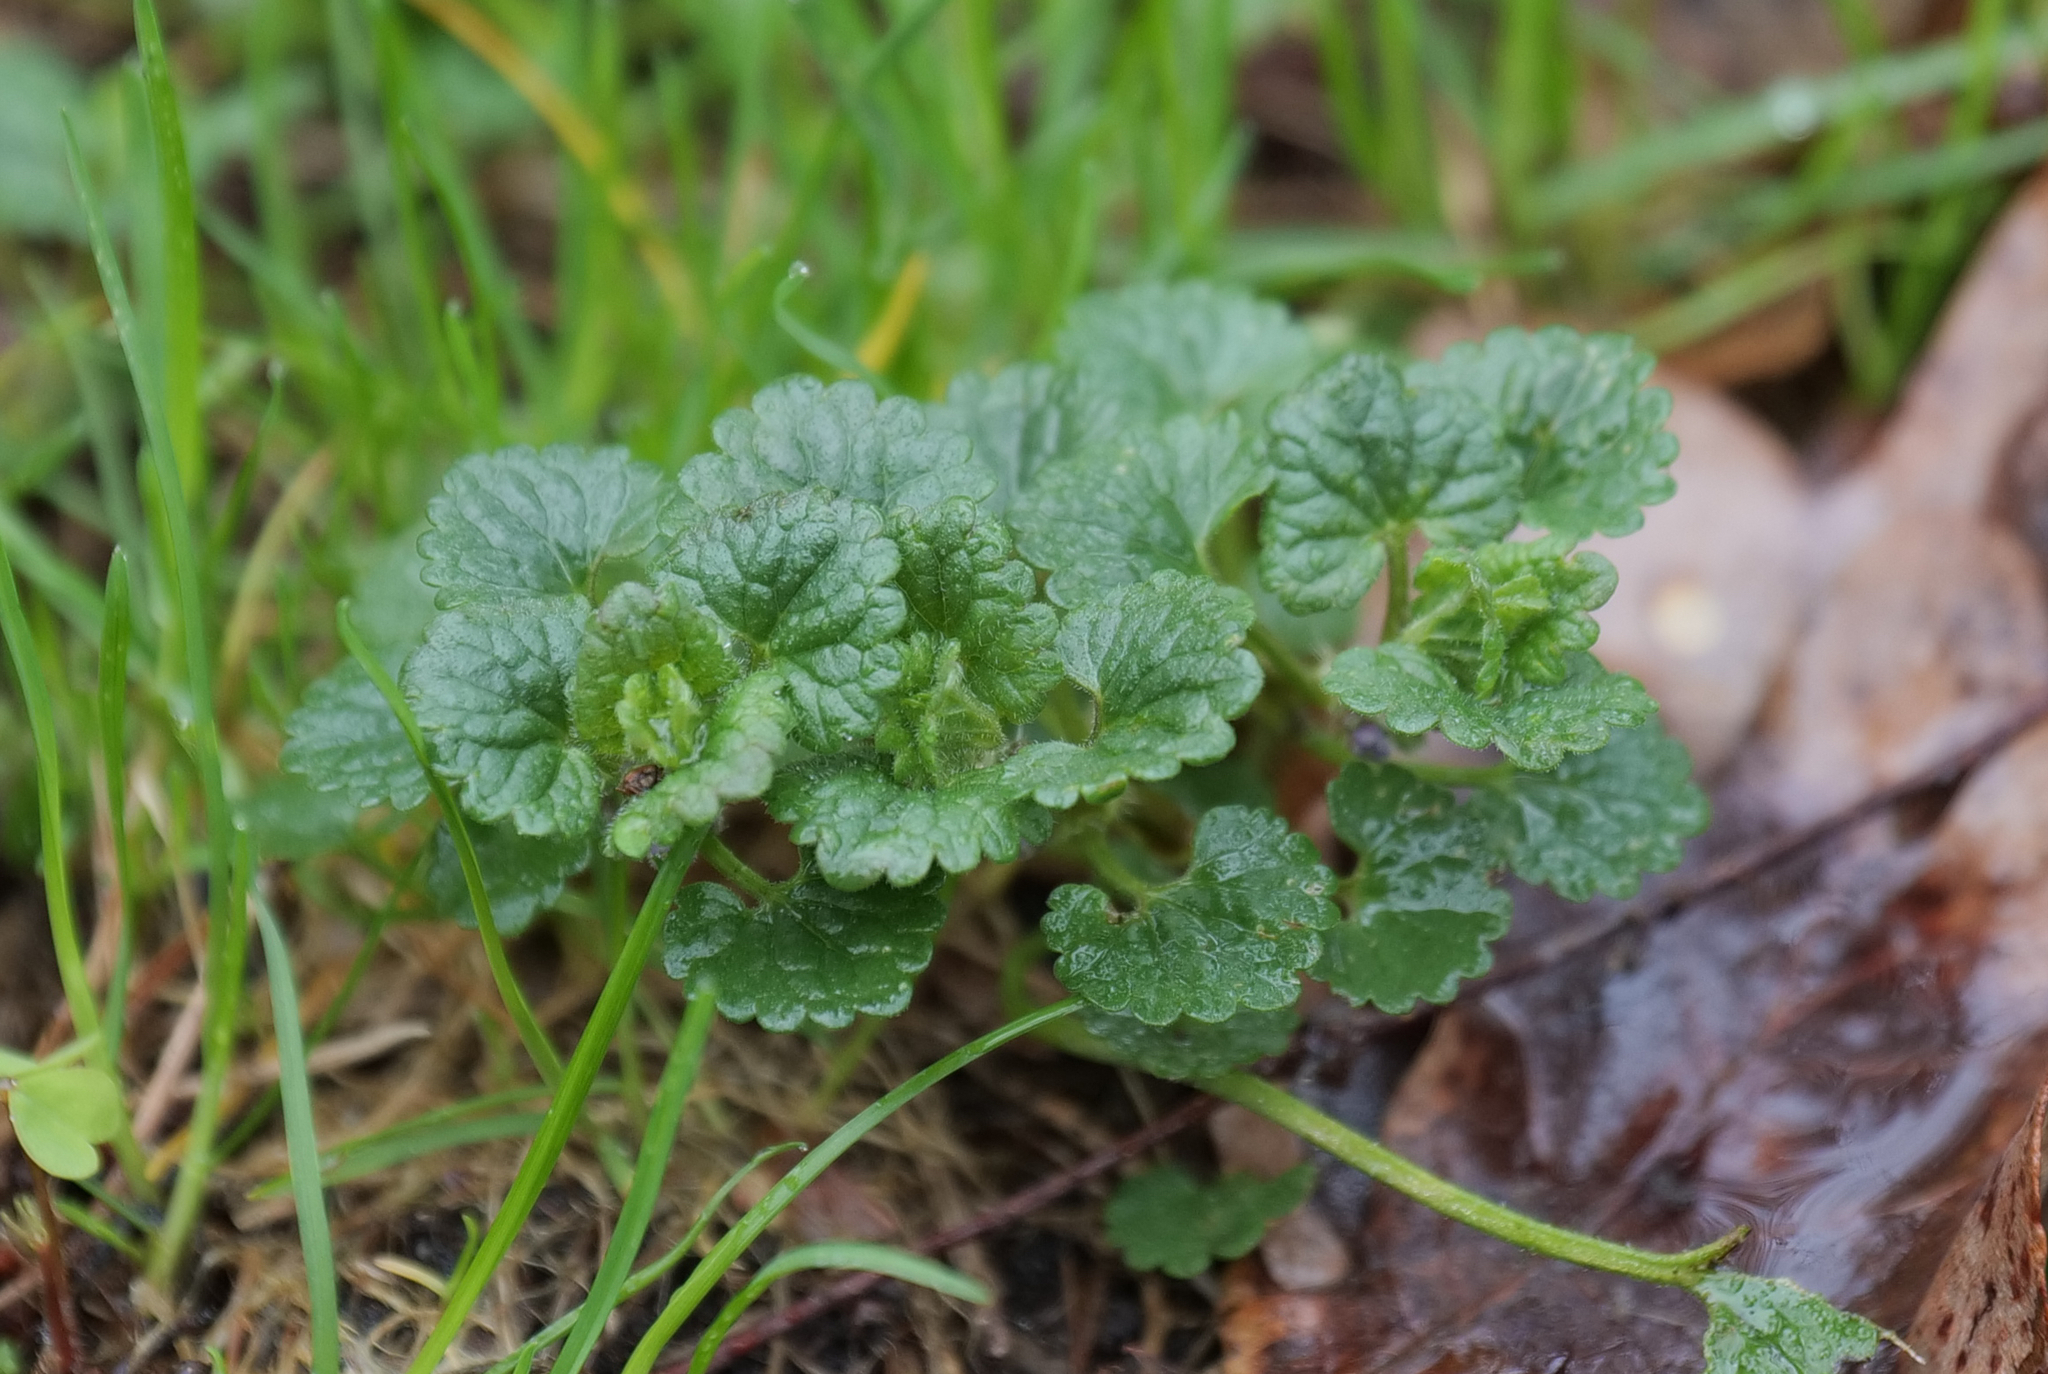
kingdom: Plantae
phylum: Tracheophyta
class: Magnoliopsida
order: Lamiales
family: Lamiaceae
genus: Glechoma
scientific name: Glechoma hederacea
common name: Ground ivy
